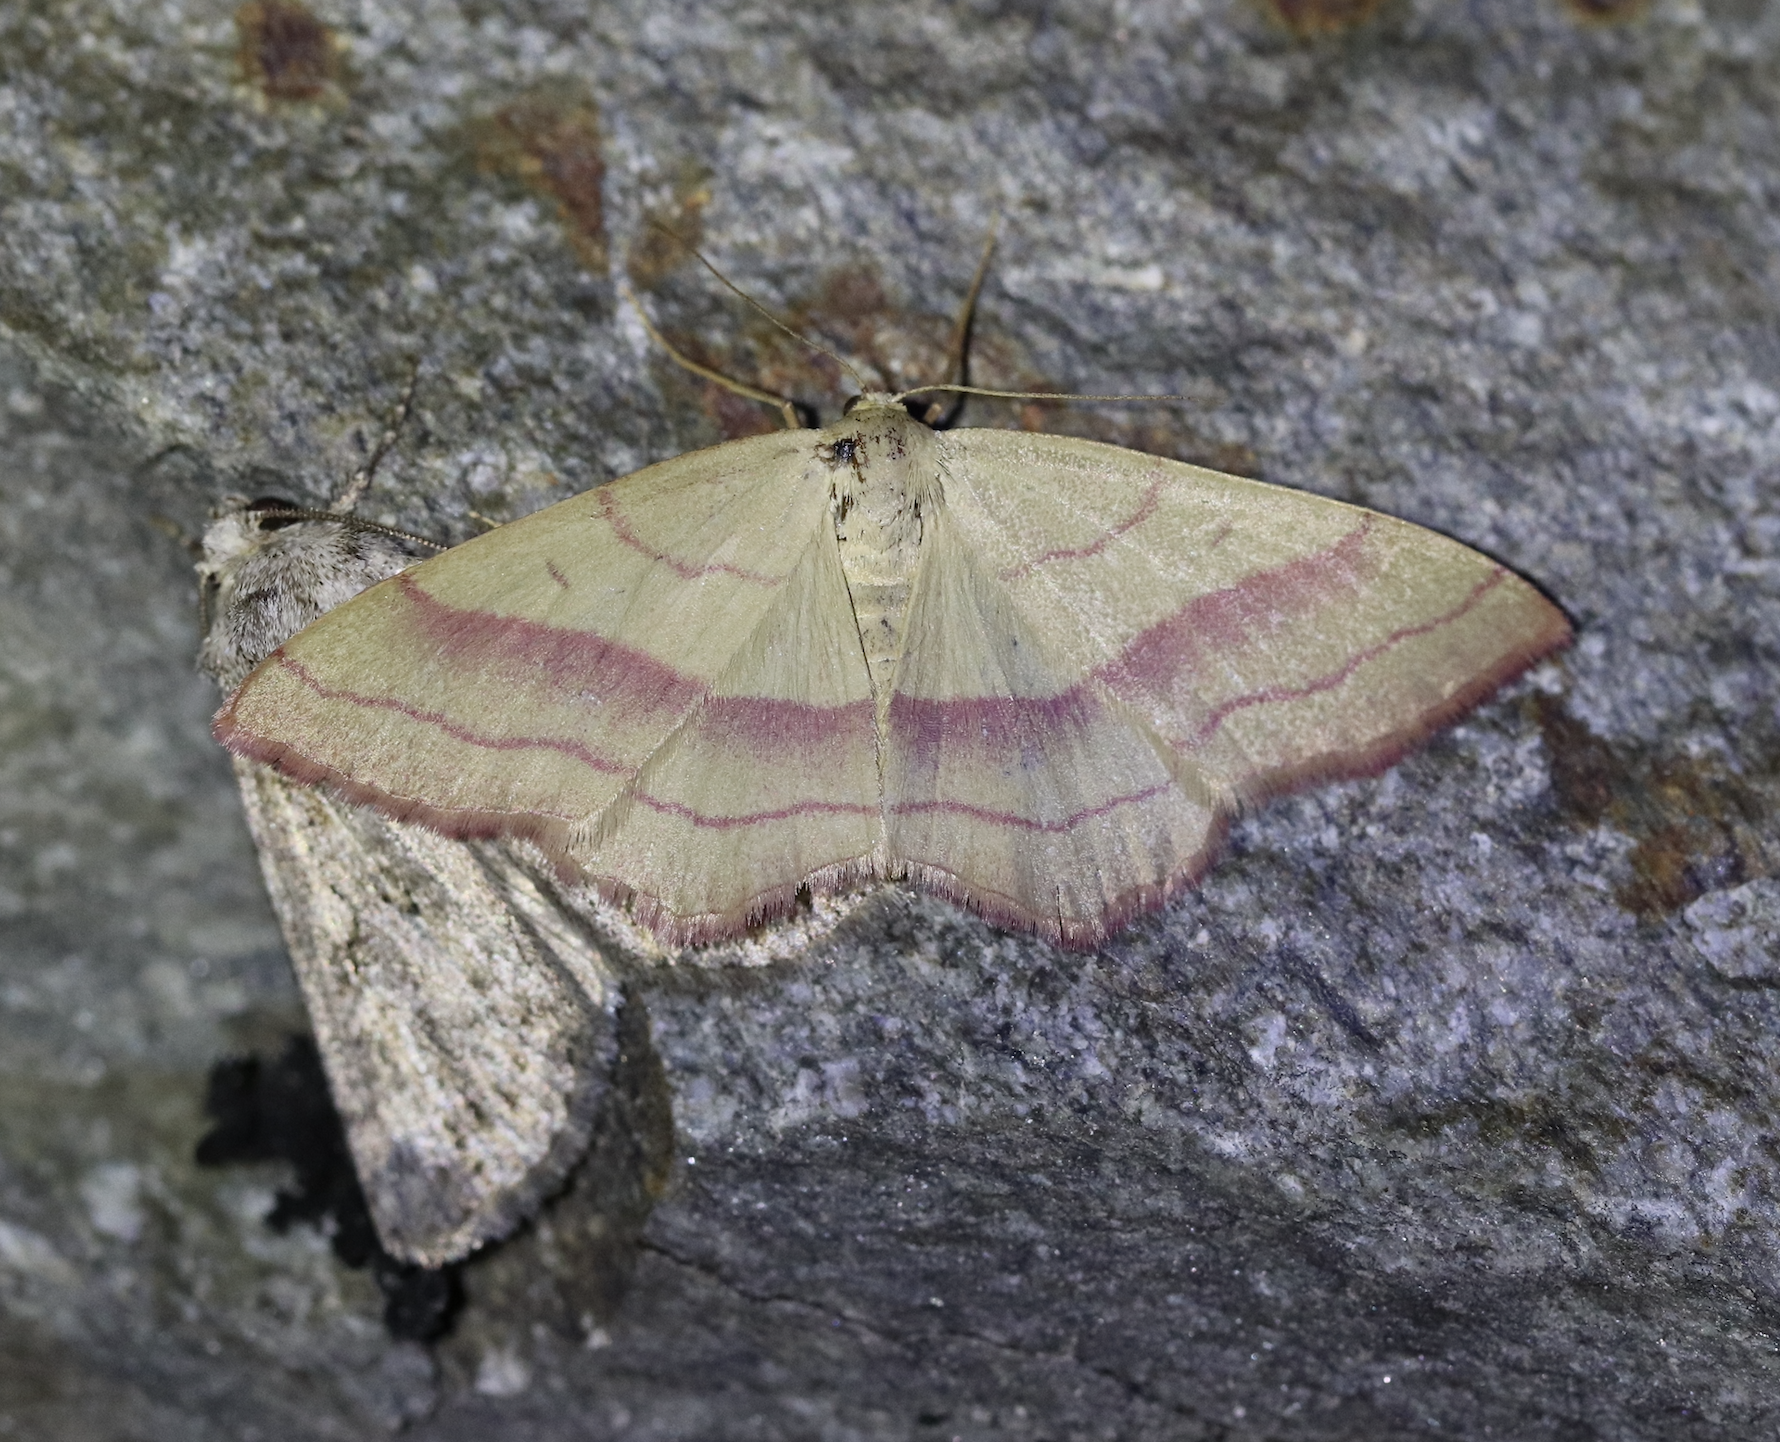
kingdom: Animalia
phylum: Arthropoda
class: Insecta
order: Lepidoptera
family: Geometridae
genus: Rhodostrophia
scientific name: Rhodostrophia vibicaria
